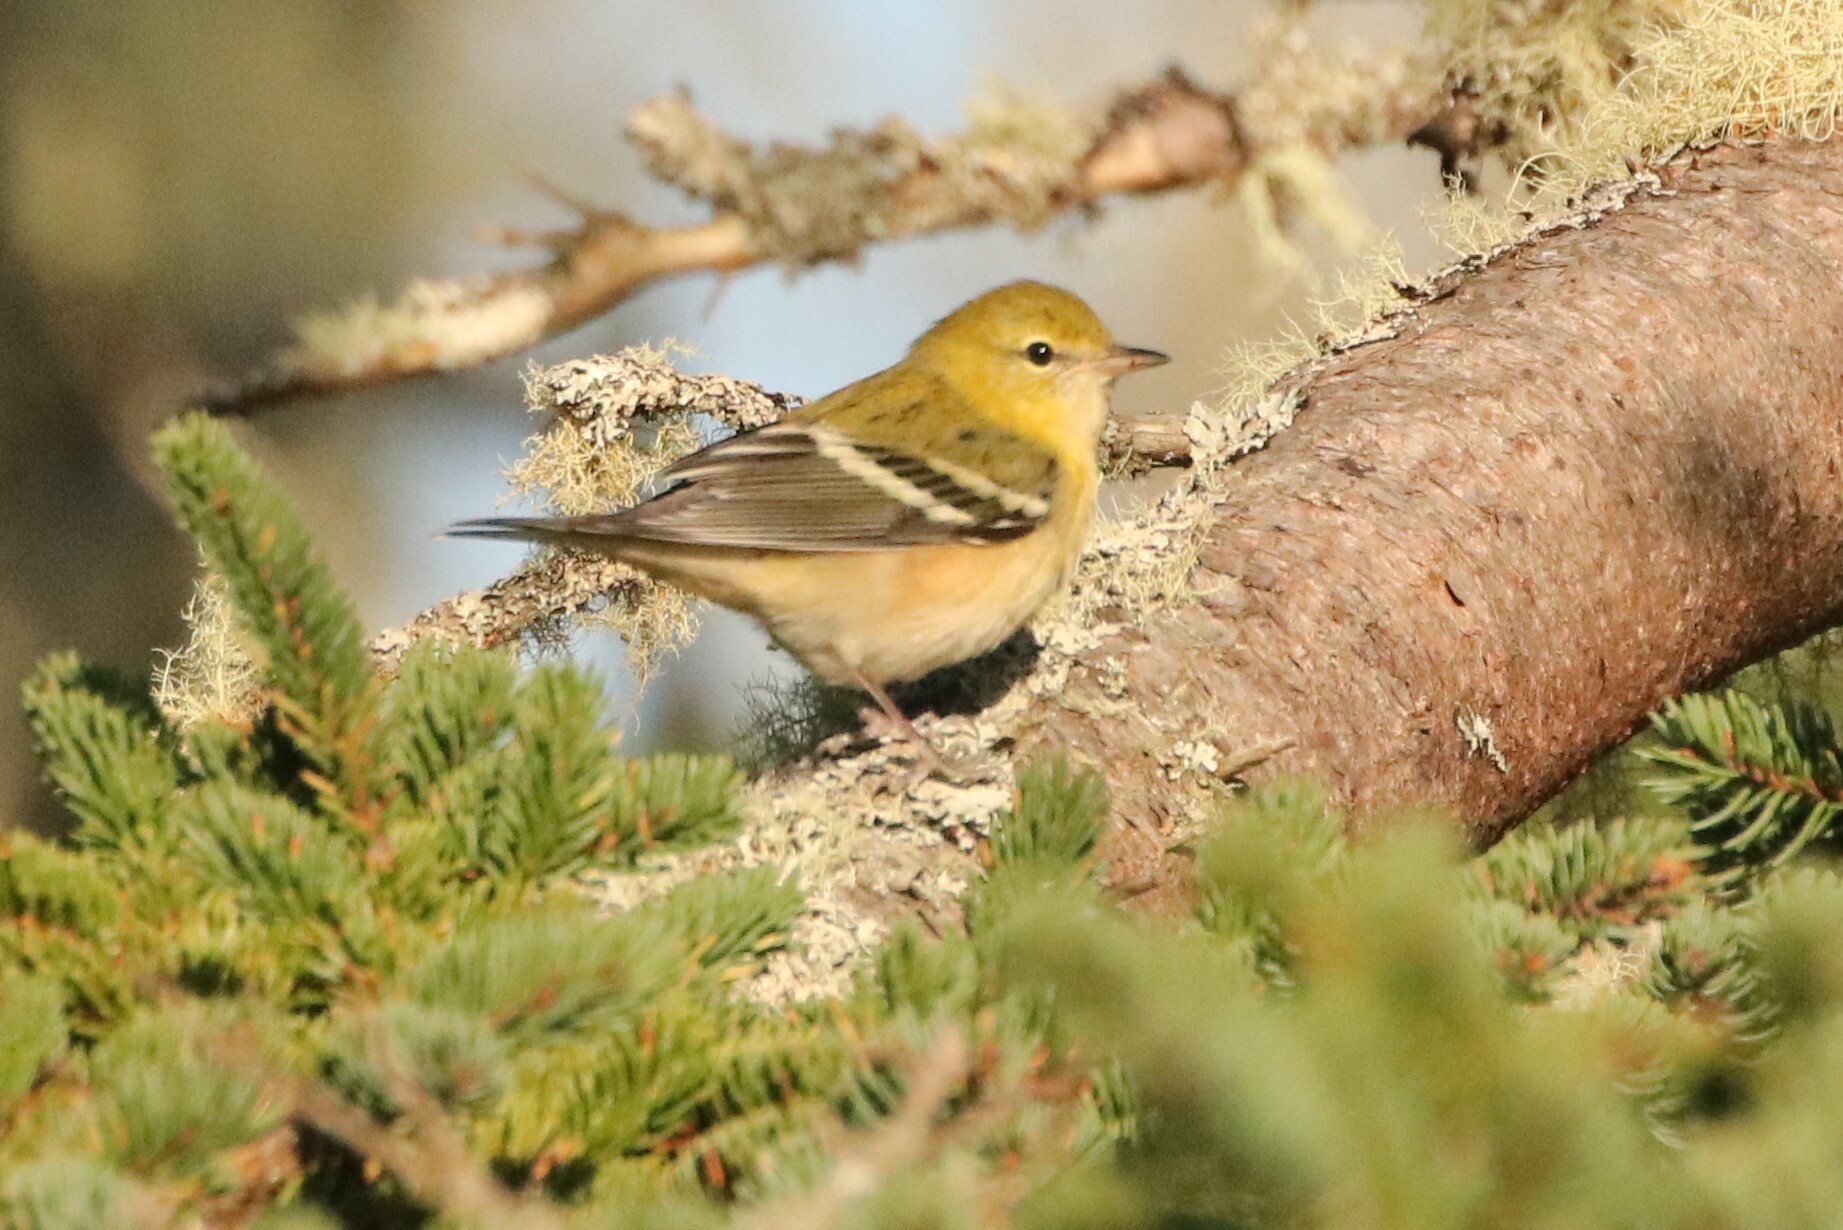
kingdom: Animalia
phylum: Chordata
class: Aves
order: Passeriformes
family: Parulidae
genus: Setophaga
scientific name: Setophaga castanea
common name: Bay-breasted warbler
